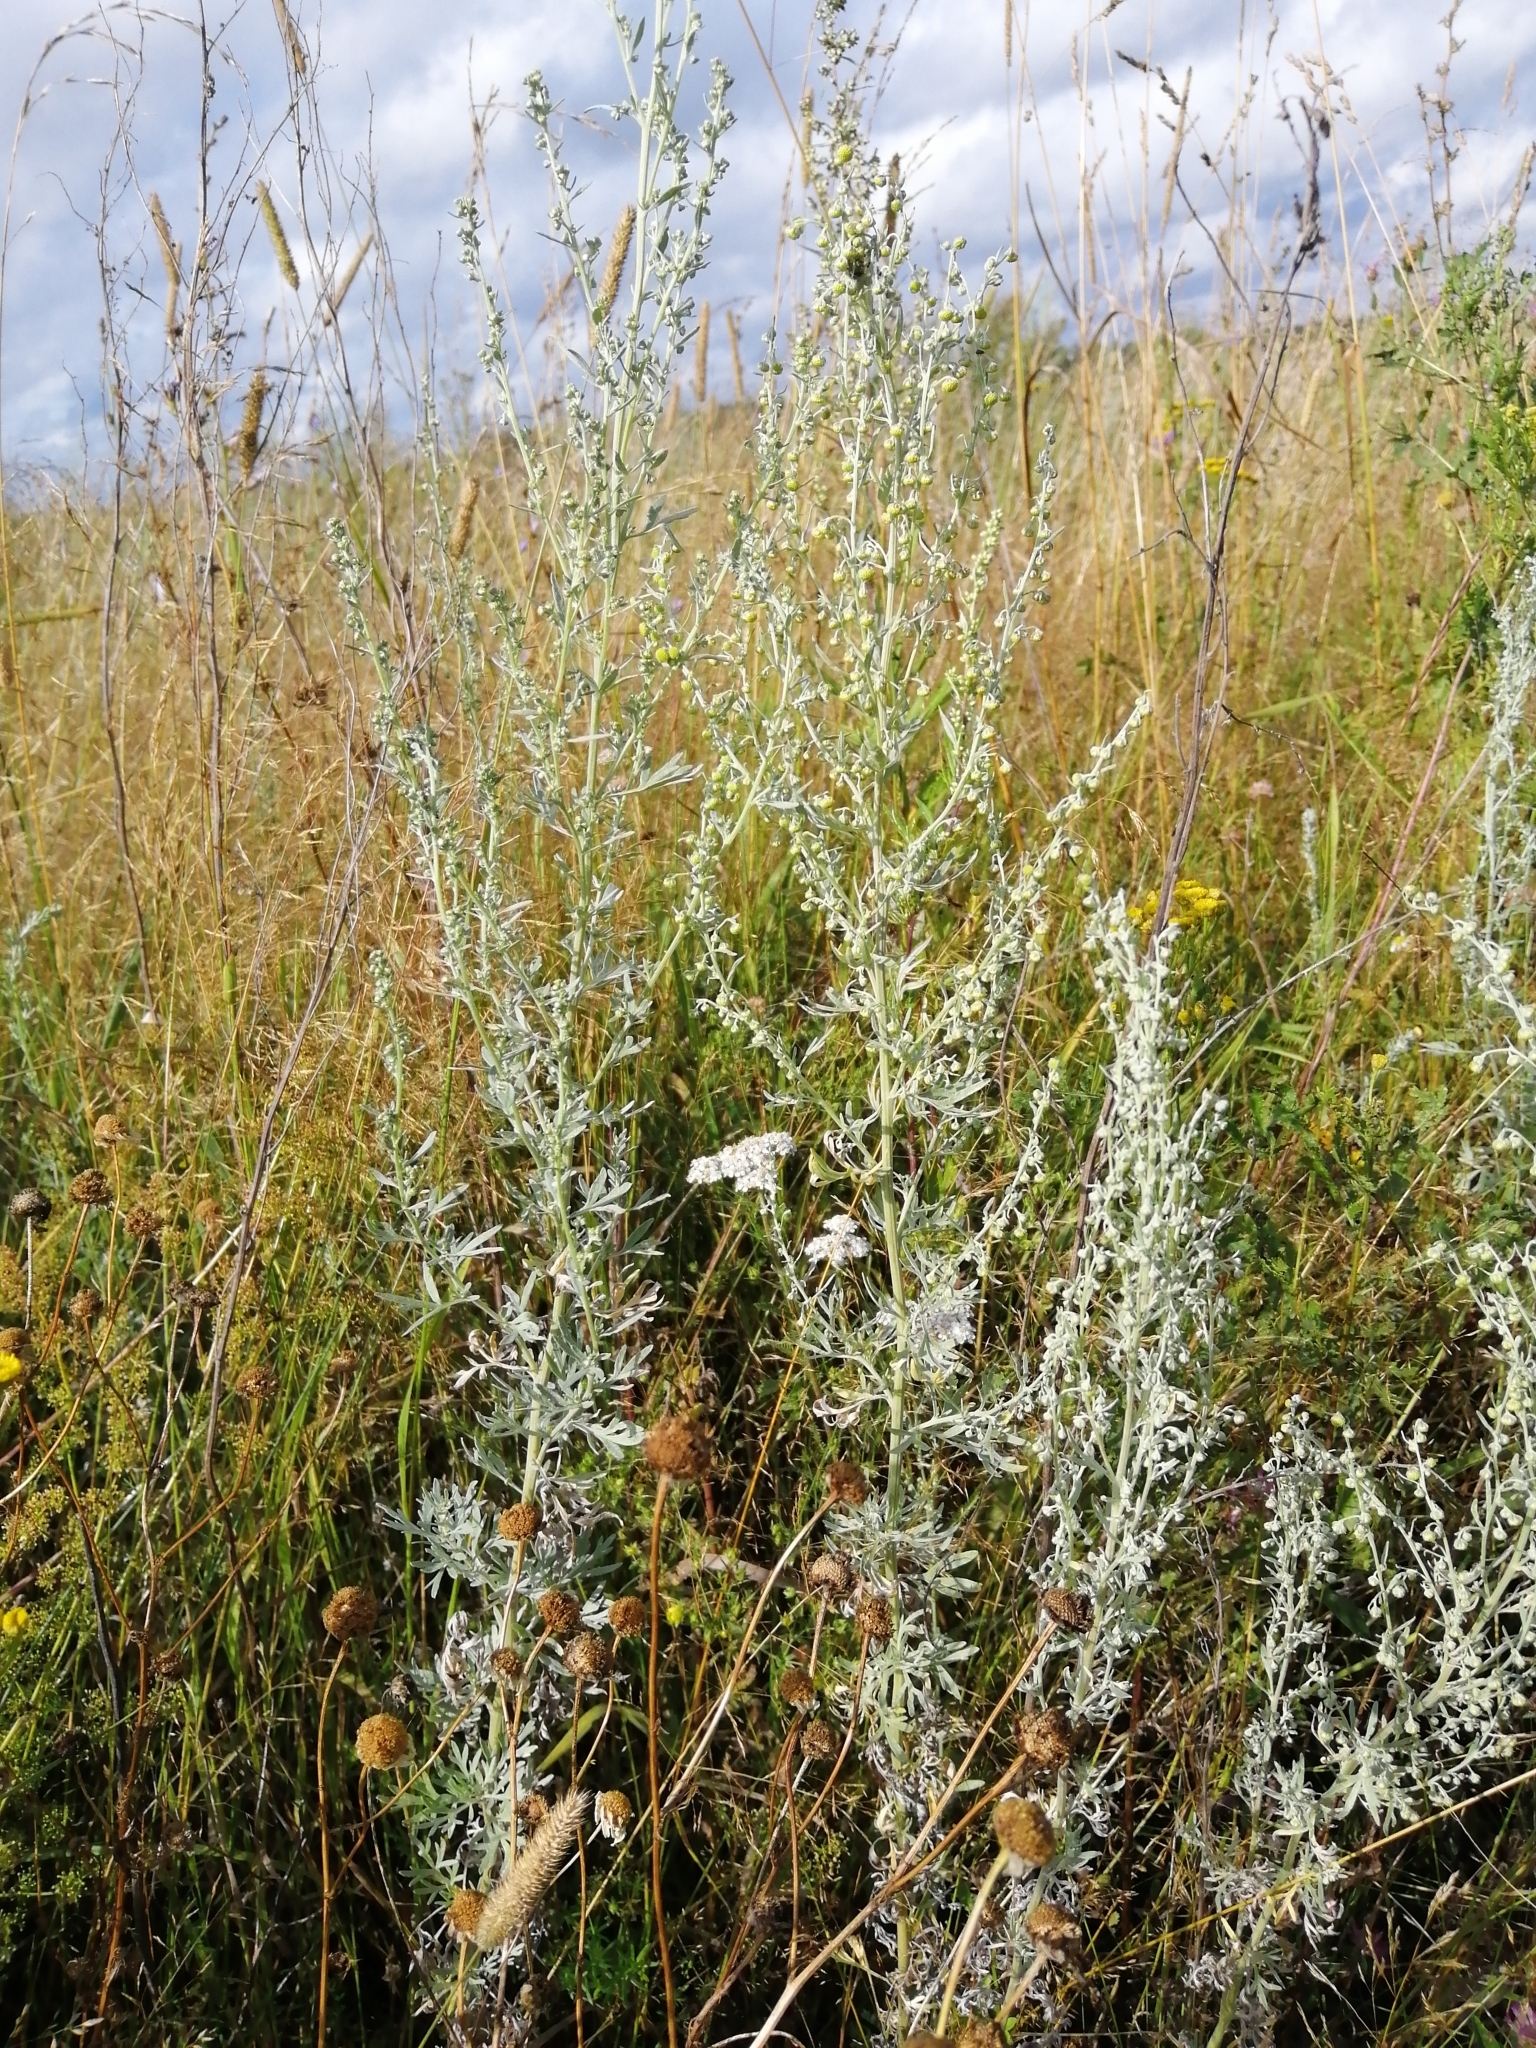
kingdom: Plantae
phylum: Tracheophyta
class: Magnoliopsida
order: Asterales
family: Asteraceae
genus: Artemisia
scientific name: Artemisia absinthium
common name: Wormwood
